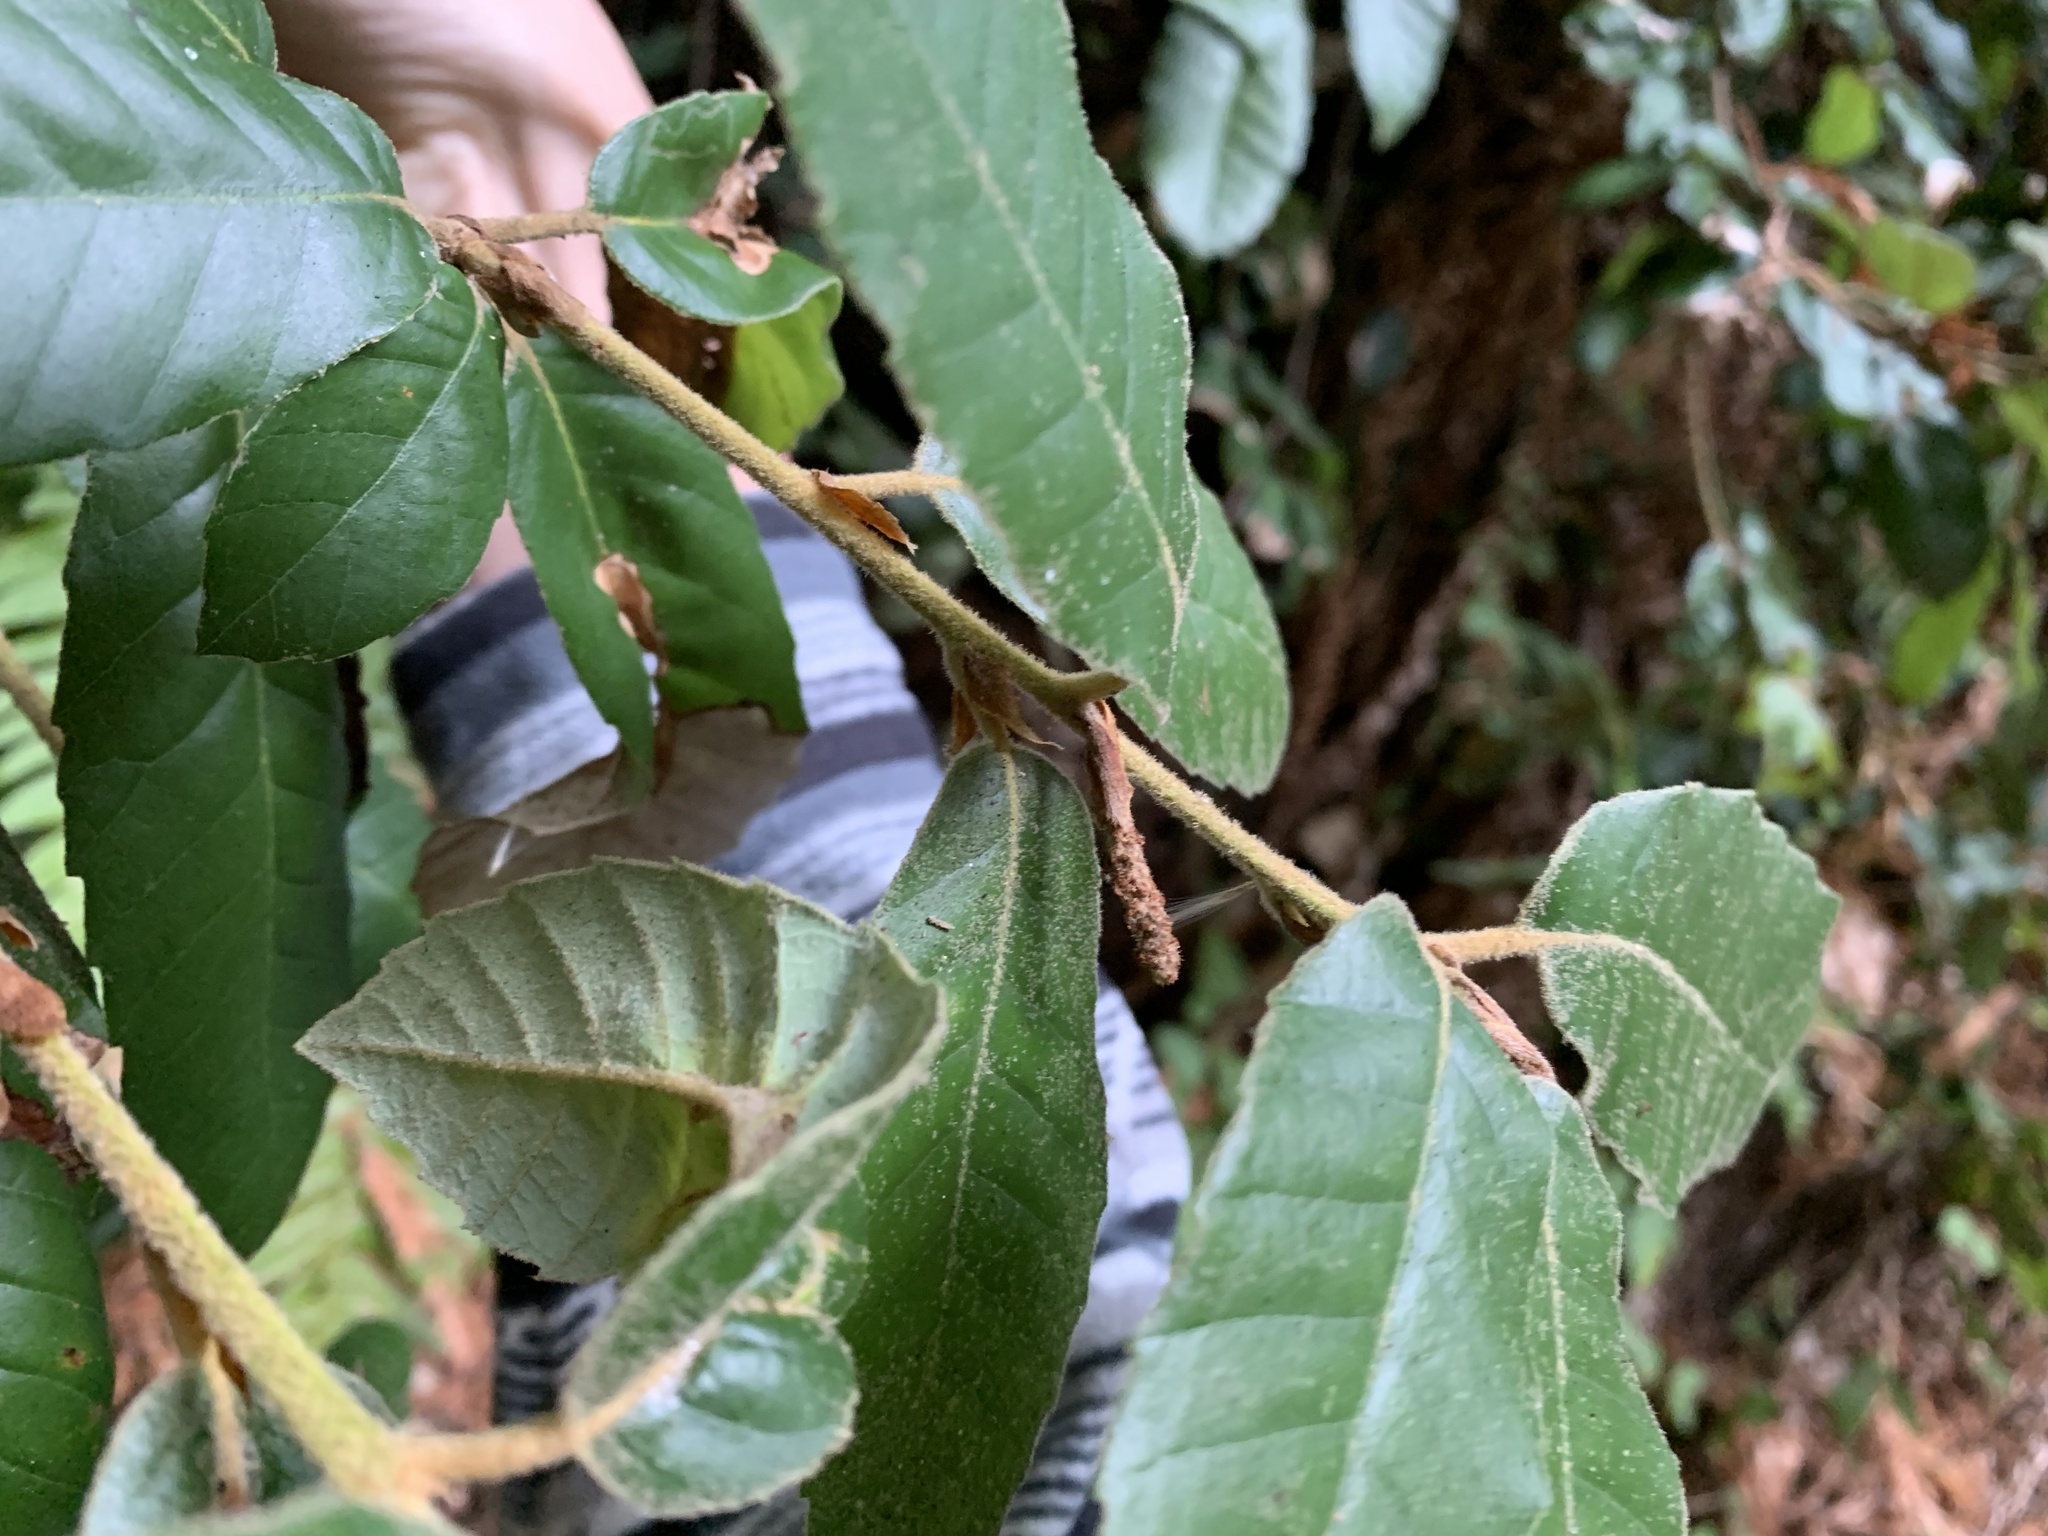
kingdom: Plantae
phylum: Tracheophyta
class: Magnoliopsida
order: Fagales
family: Fagaceae
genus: Notholithocarpus
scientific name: Notholithocarpus densiflorus
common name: Tan bark oak
